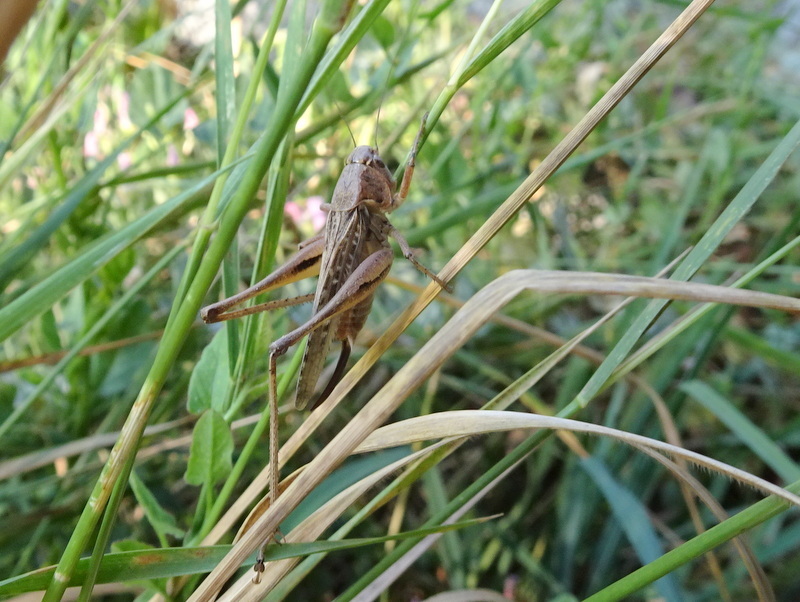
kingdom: Animalia
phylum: Arthropoda
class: Insecta
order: Orthoptera
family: Tettigoniidae
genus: Platycleis
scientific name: Platycleis albopunctata
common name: Grey bush-cricket
